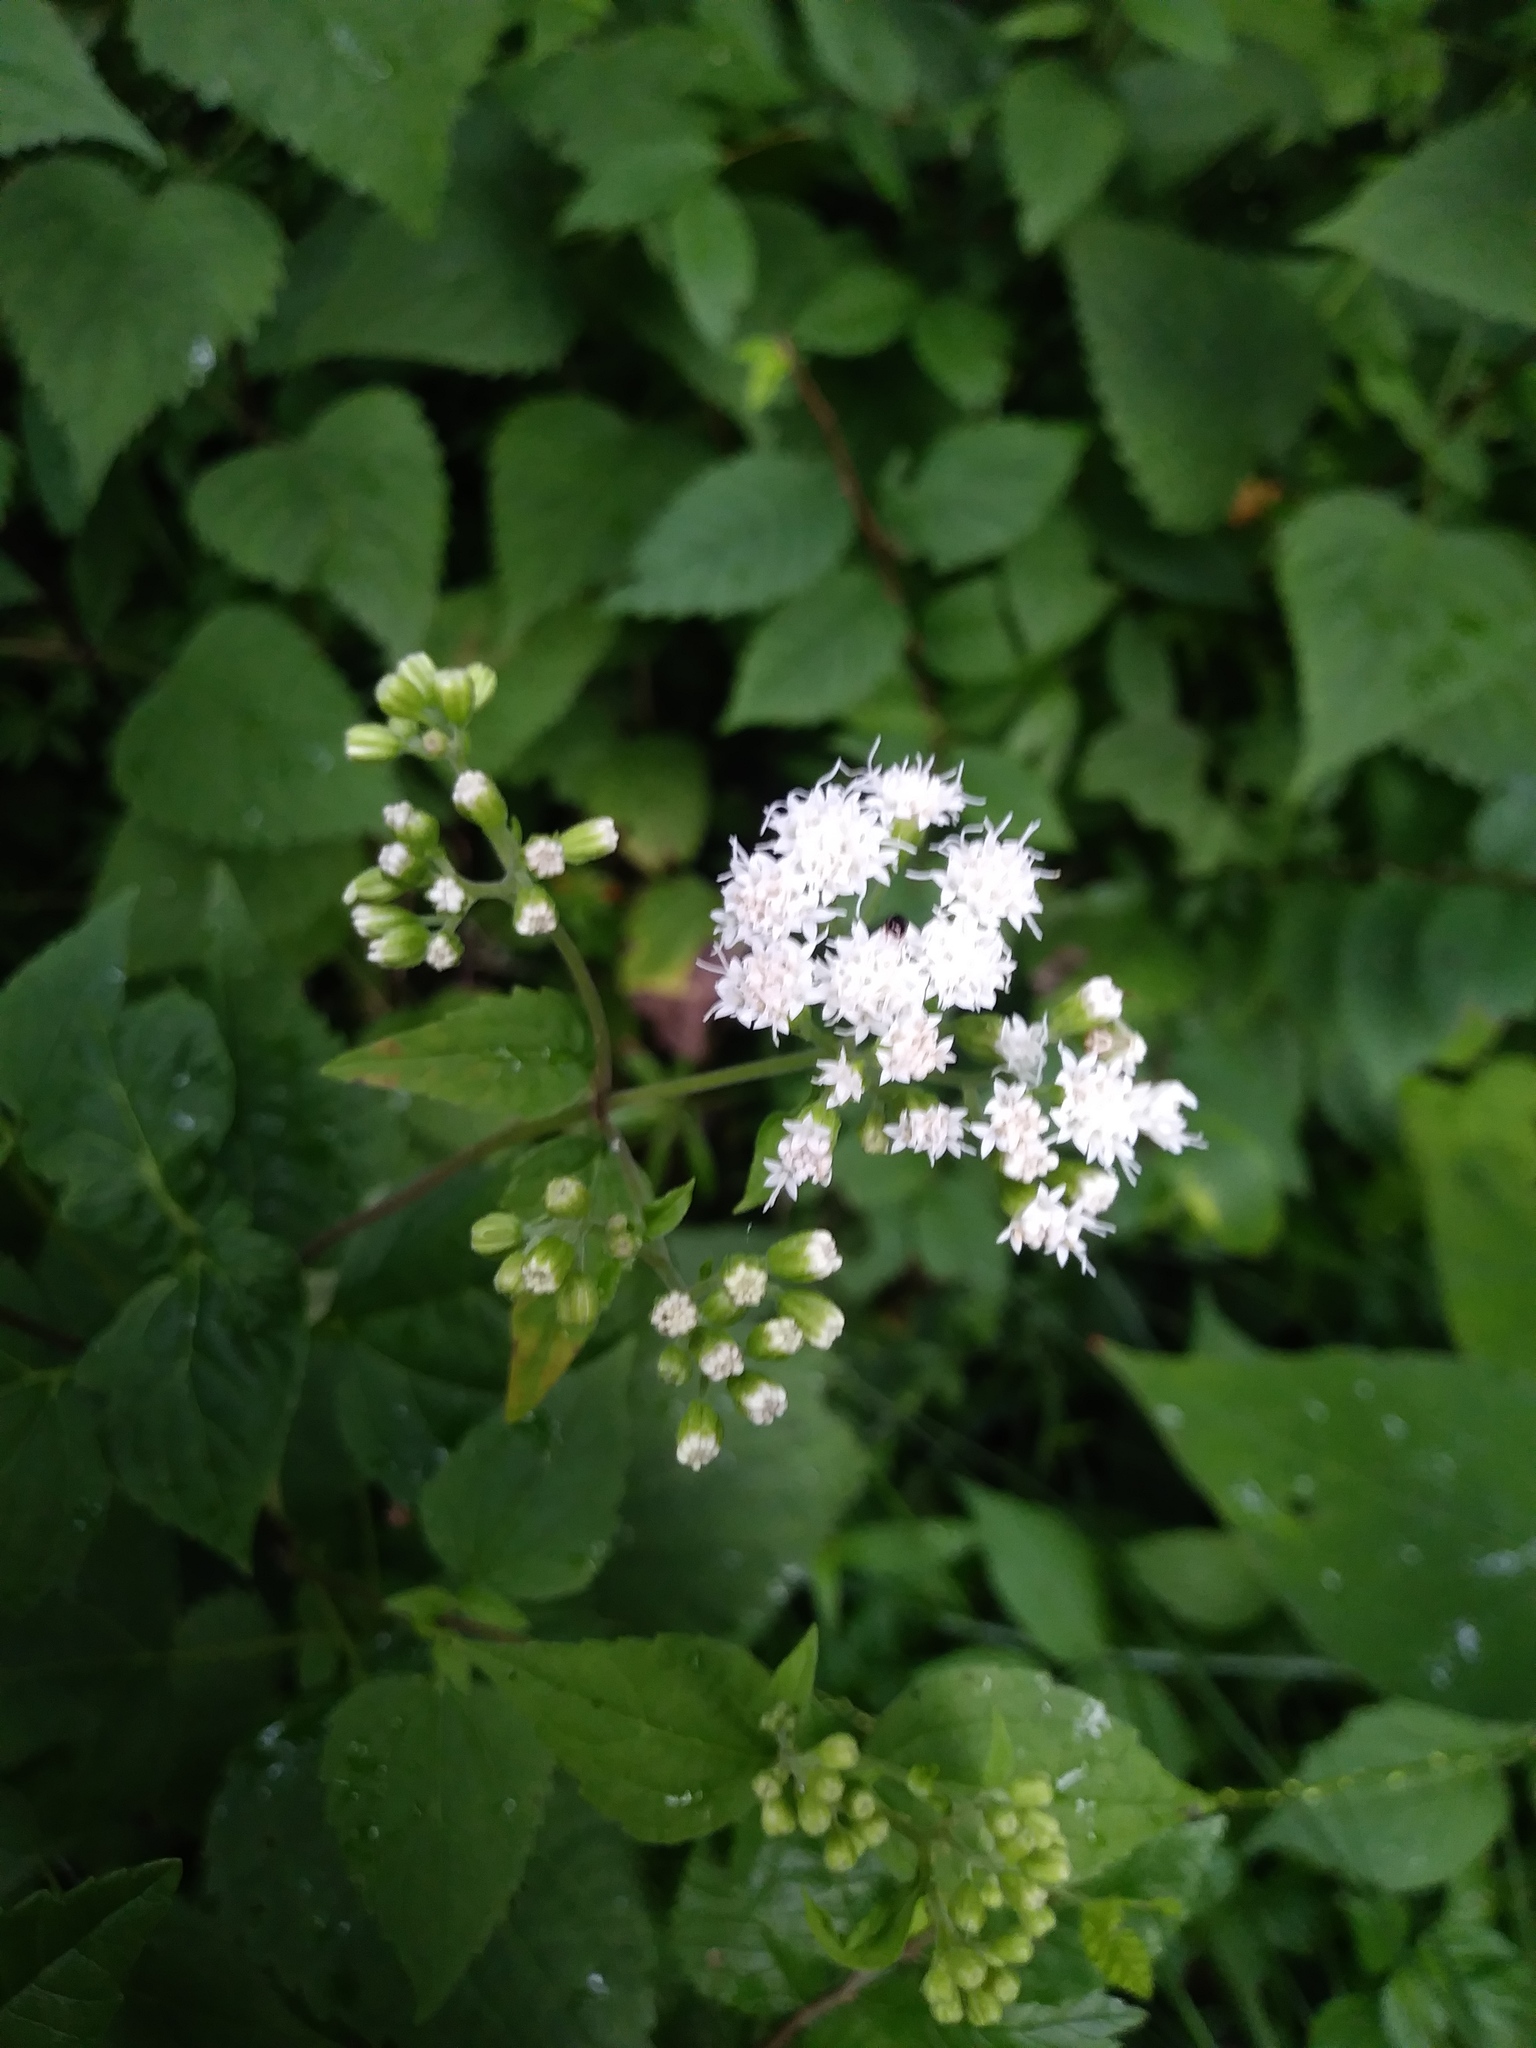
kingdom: Plantae
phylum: Tracheophyta
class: Magnoliopsida
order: Asterales
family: Asteraceae
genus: Ageratina
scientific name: Ageratina altissima
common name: White snakeroot
